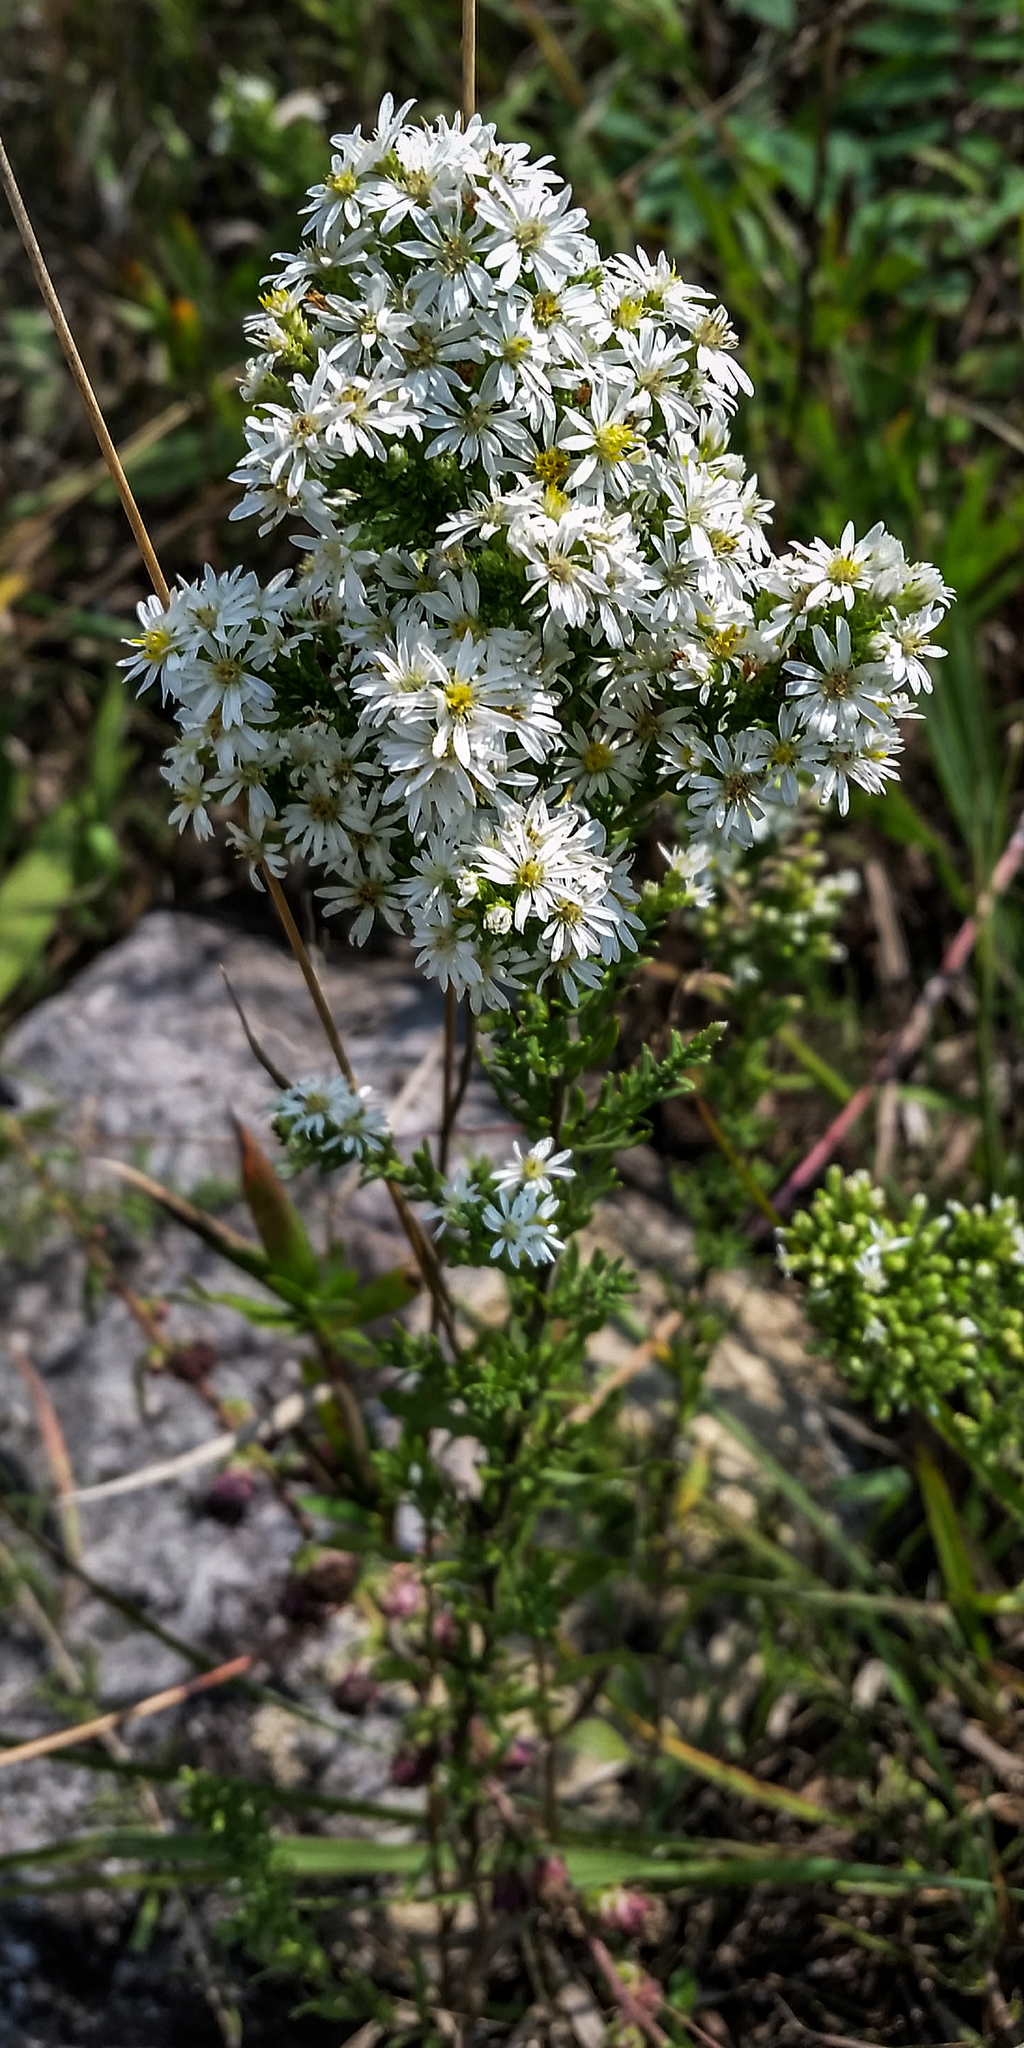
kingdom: Plantae
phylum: Tracheophyta
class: Magnoliopsida
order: Asterales
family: Asteraceae
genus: Symphyotrichum
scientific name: Symphyotrichum ericoides
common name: Heath aster
